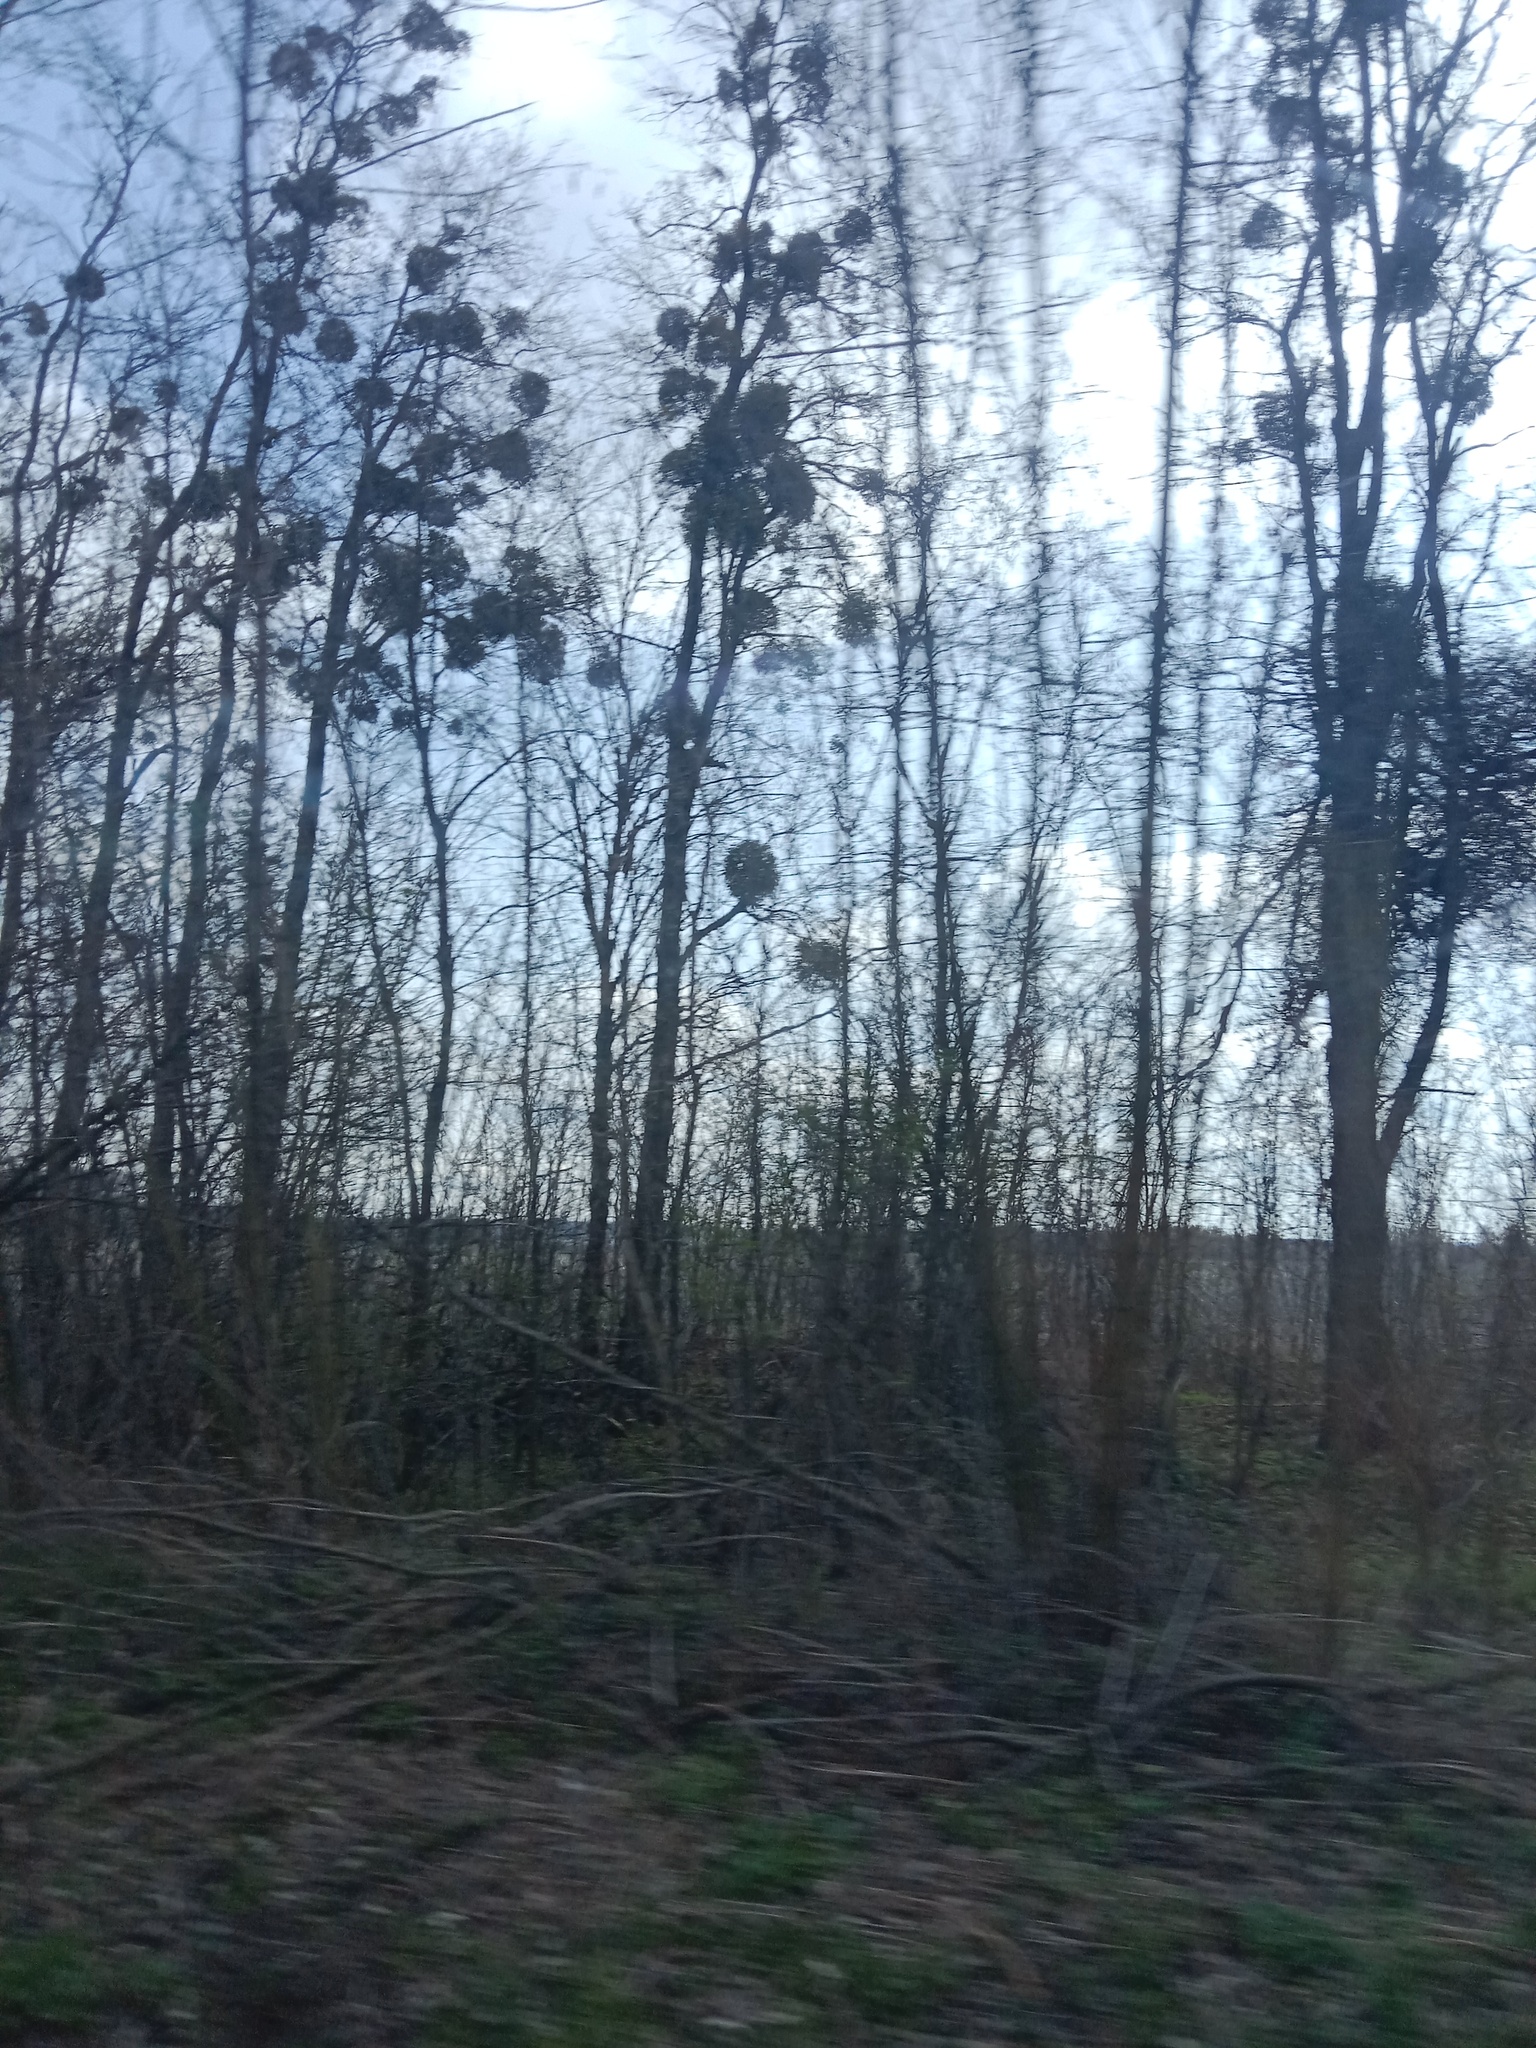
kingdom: Plantae
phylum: Tracheophyta
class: Magnoliopsida
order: Santalales
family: Viscaceae
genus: Viscum
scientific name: Viscum album
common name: Mistletoe
